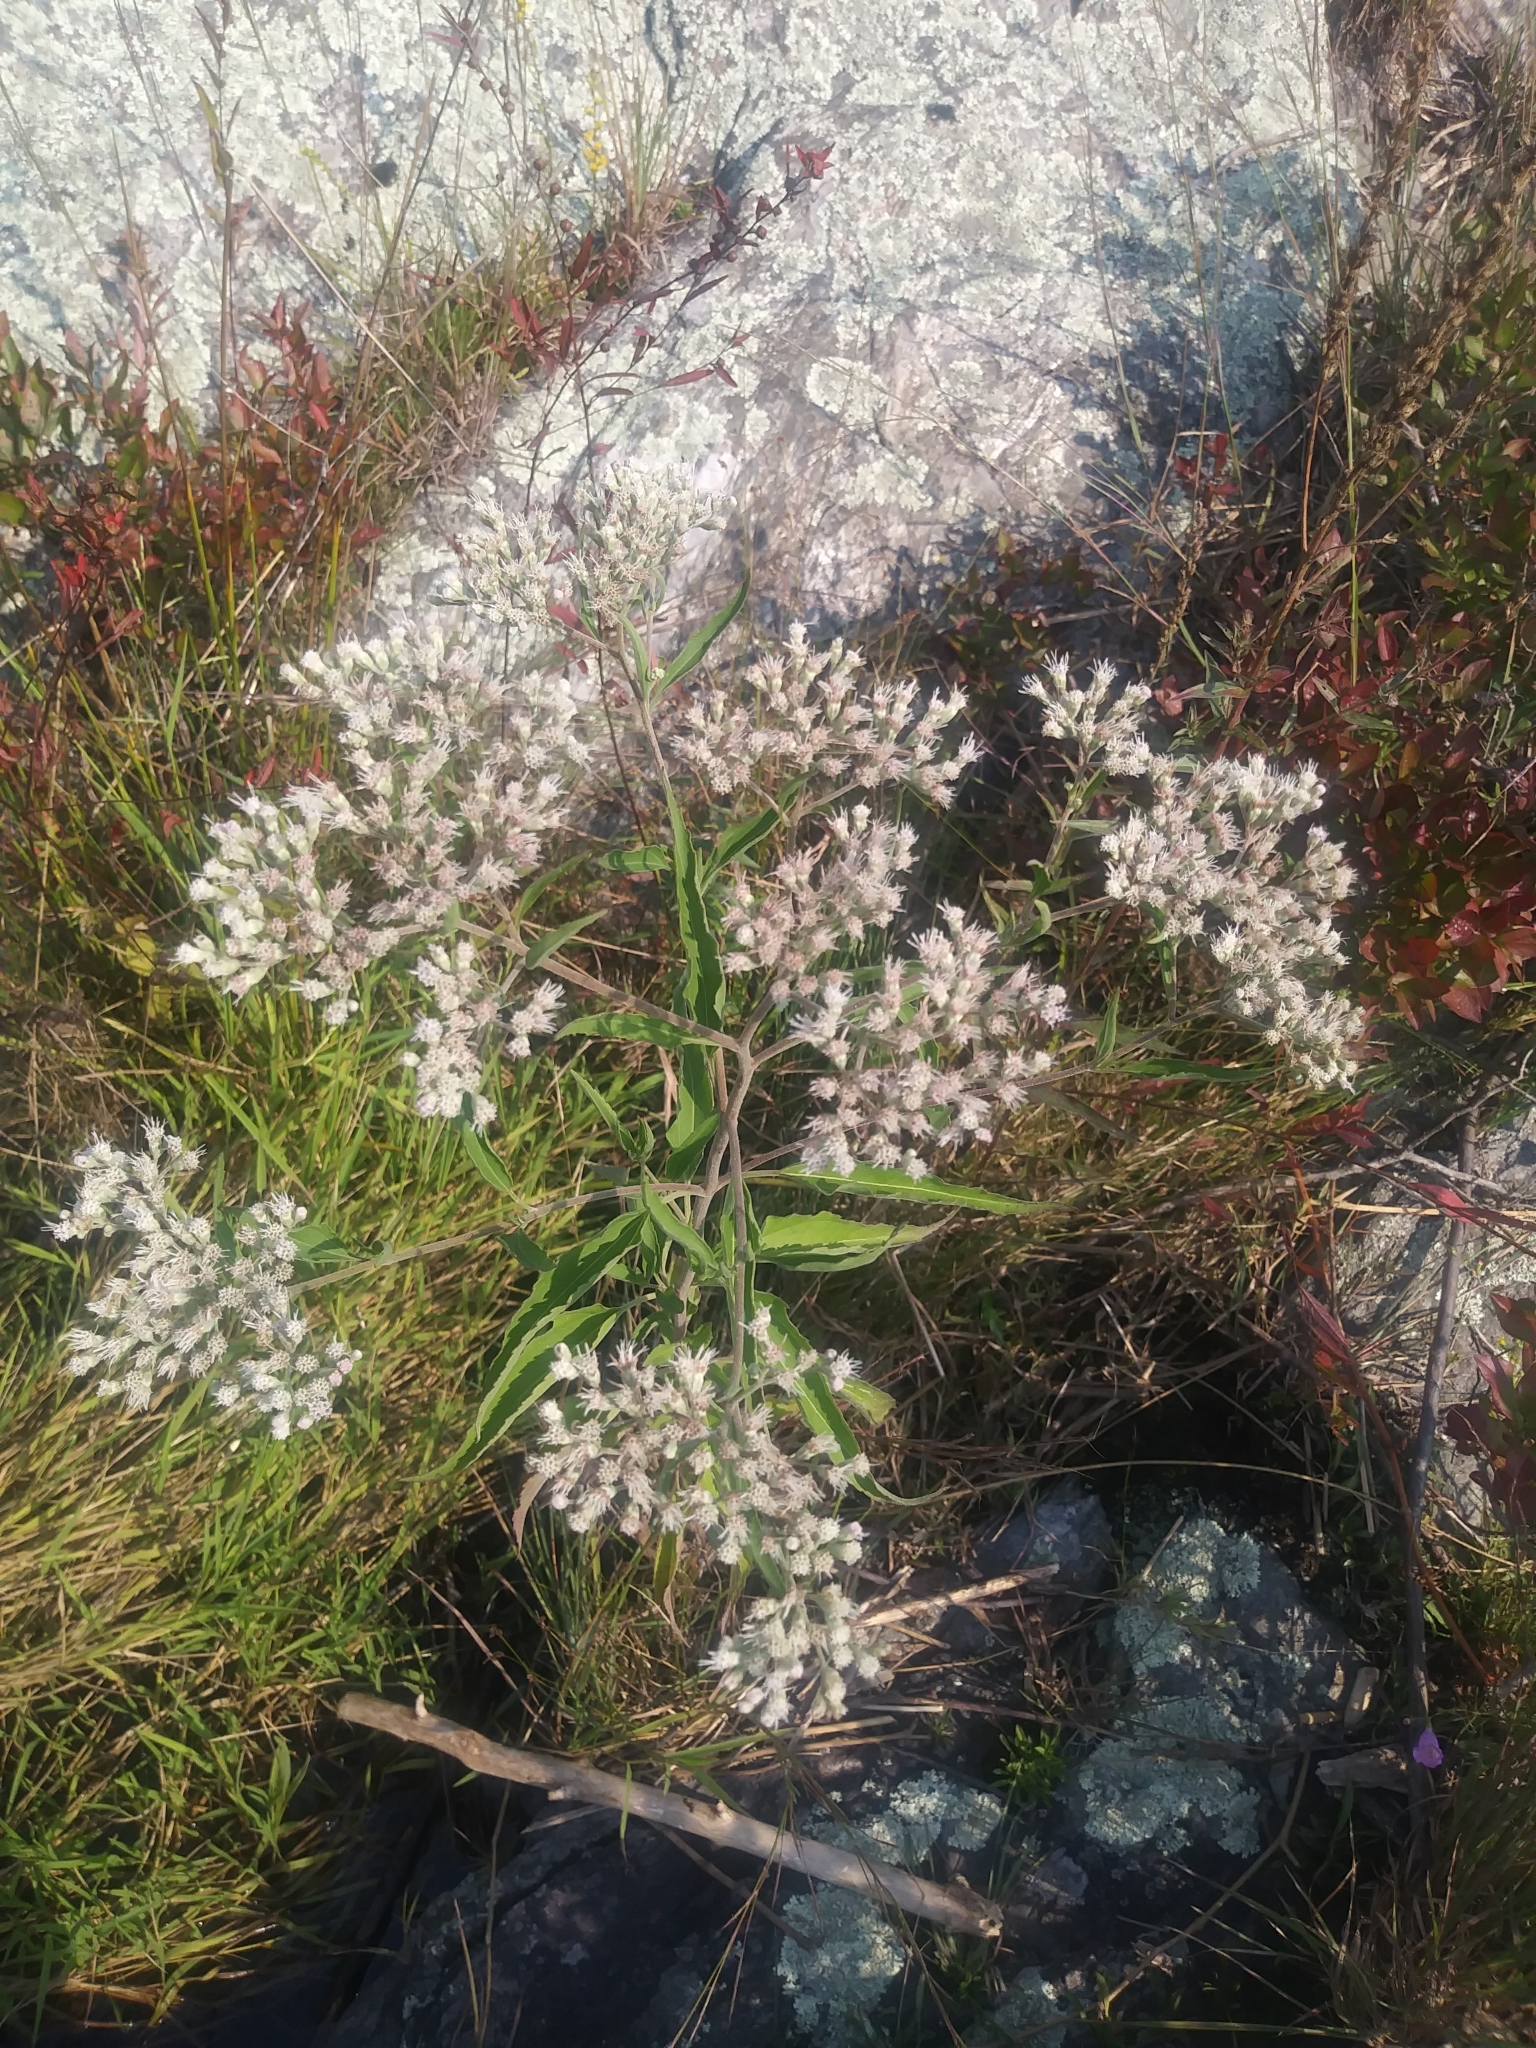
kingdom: Plantae
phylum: Tracheophyta
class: Magnoliopsida
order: Asterales
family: Asteraceae
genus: Eupatorium
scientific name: Eupatorium serotinum
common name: Late boneset
